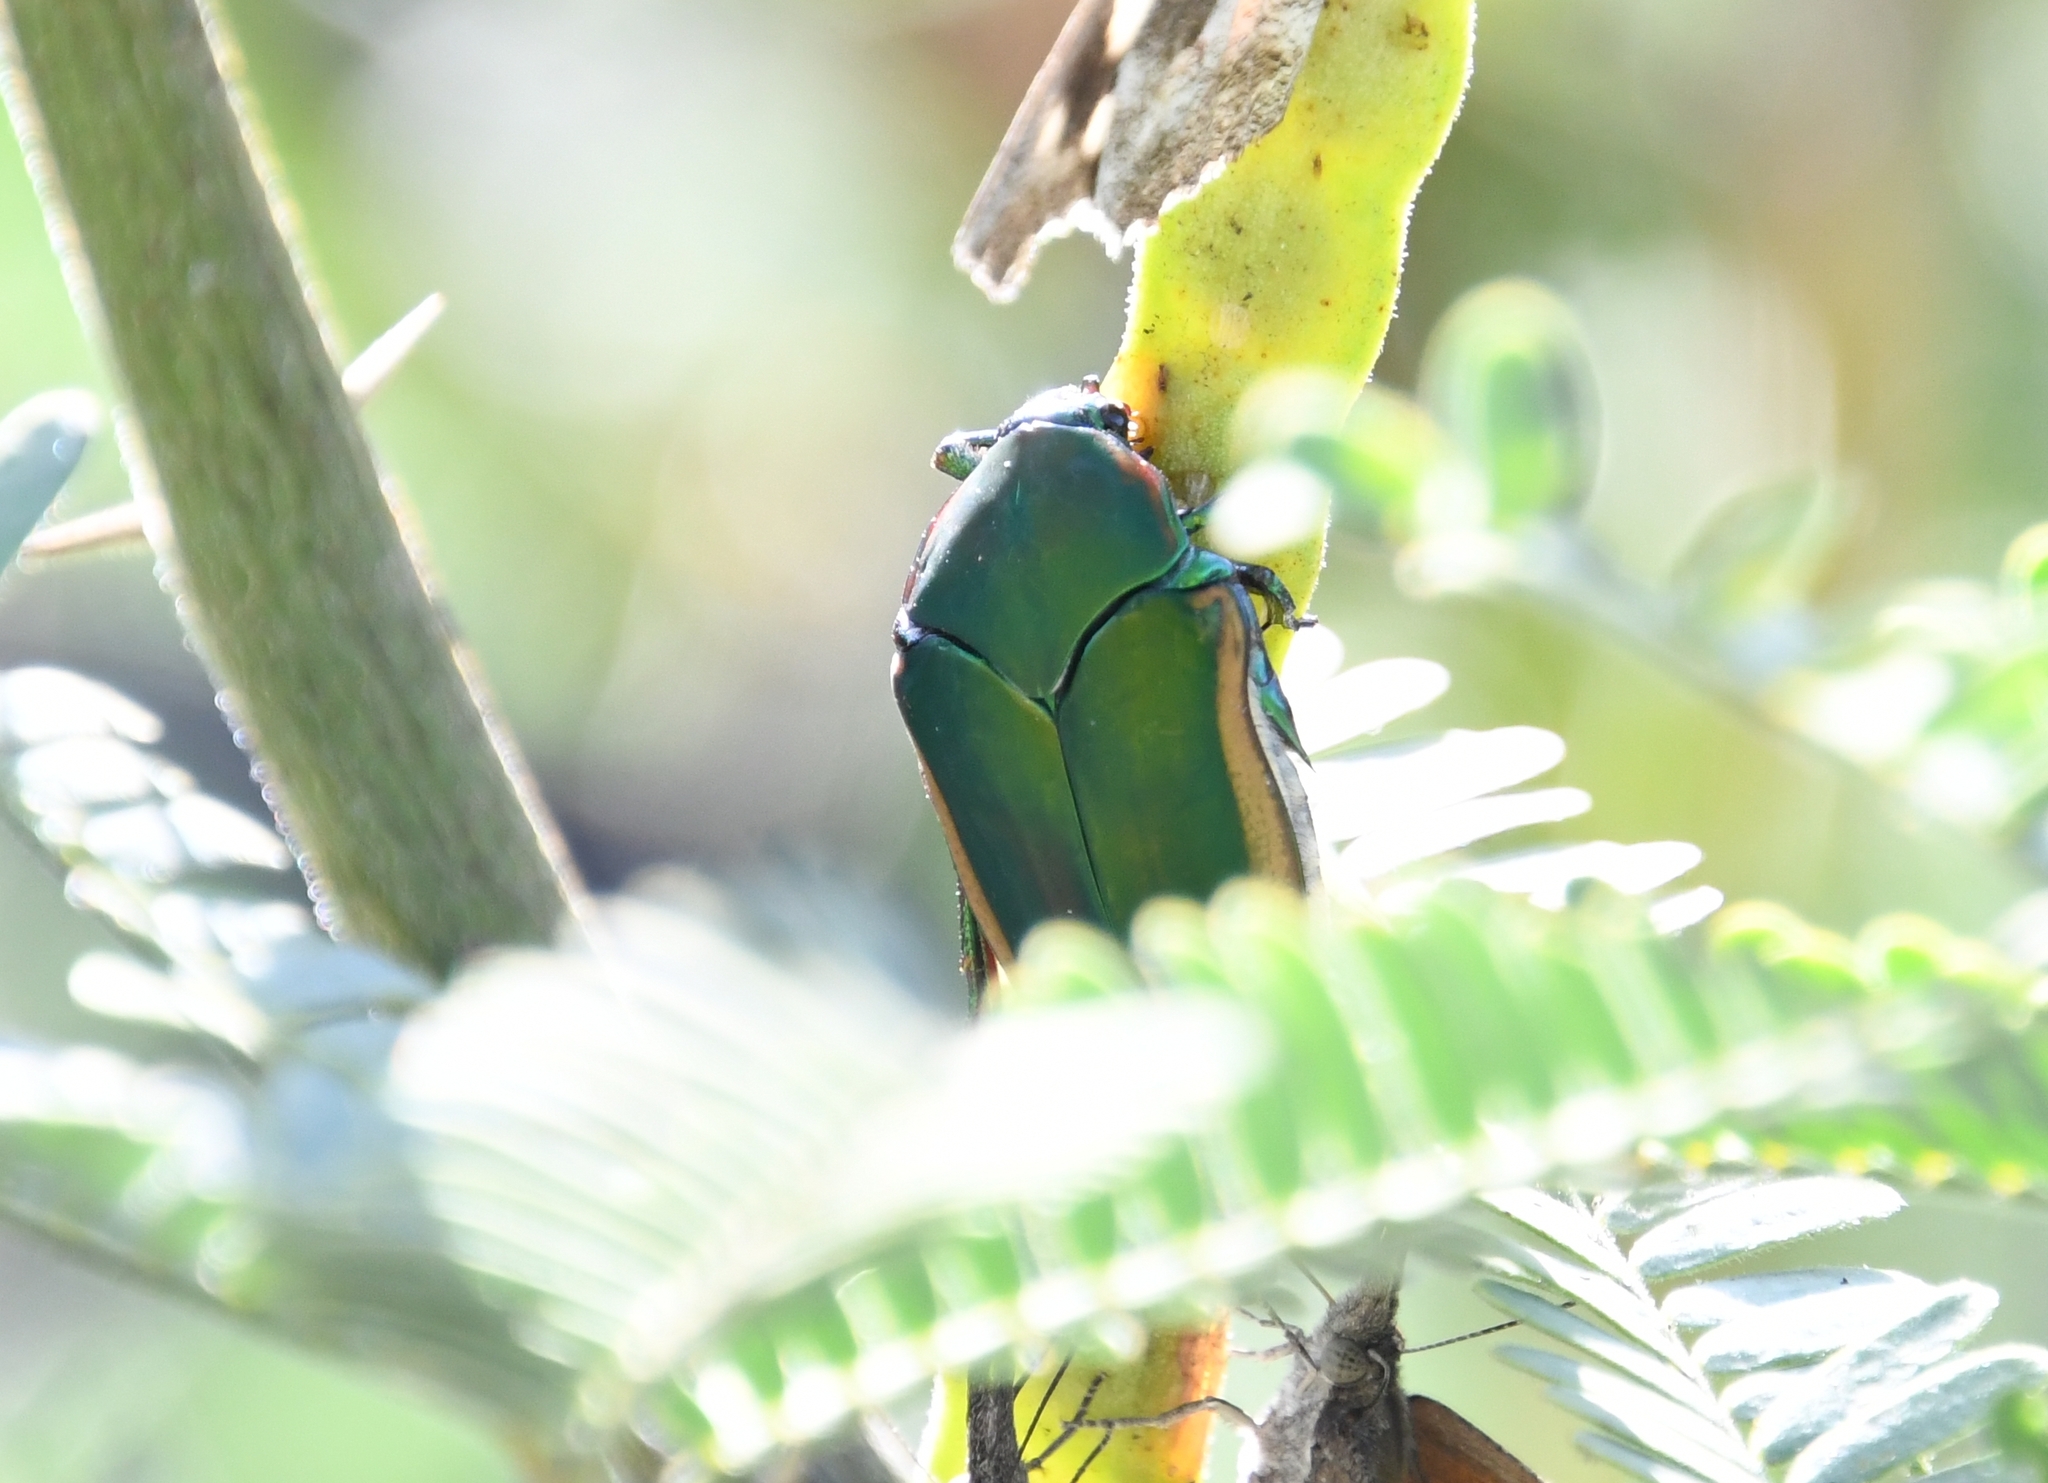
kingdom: Animalia
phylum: Arthropoda
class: Insecta
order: Coleoptera
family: Scarabaeidae
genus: Cotinis
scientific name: Cotinis mutabilis
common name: Figeater beetle
